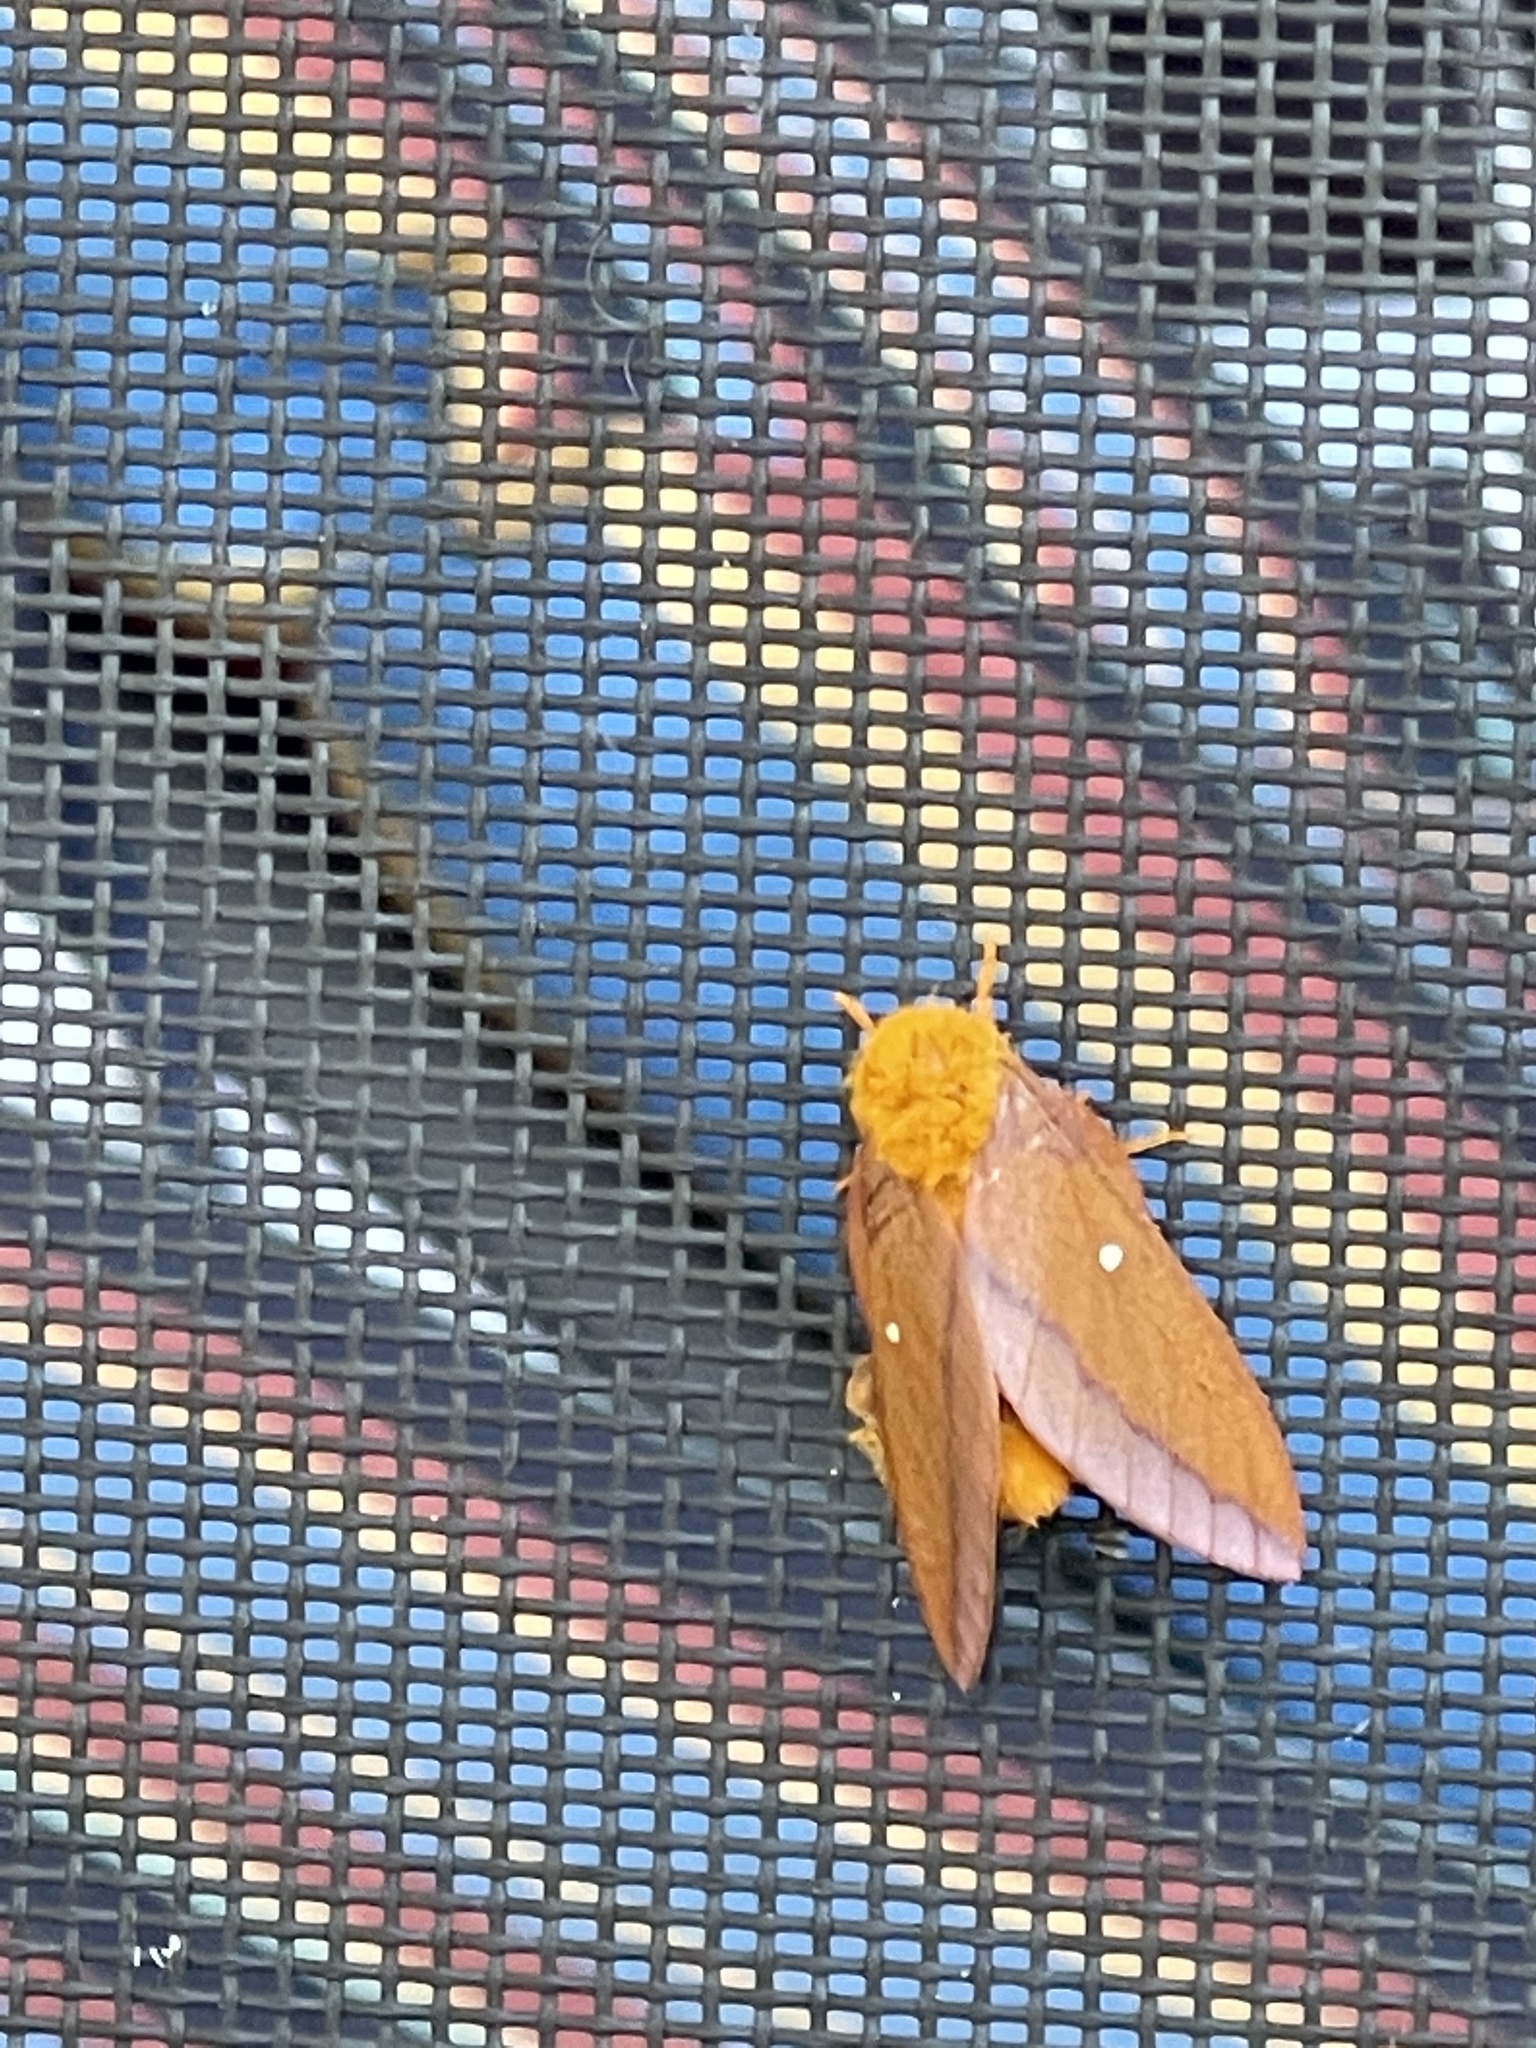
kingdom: Animalia
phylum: Arthropoda
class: Insecta
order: Lepidoptera
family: Saturniidae
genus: Anisota
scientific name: Anisota virginiensis
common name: Pink striped oakworm moth
